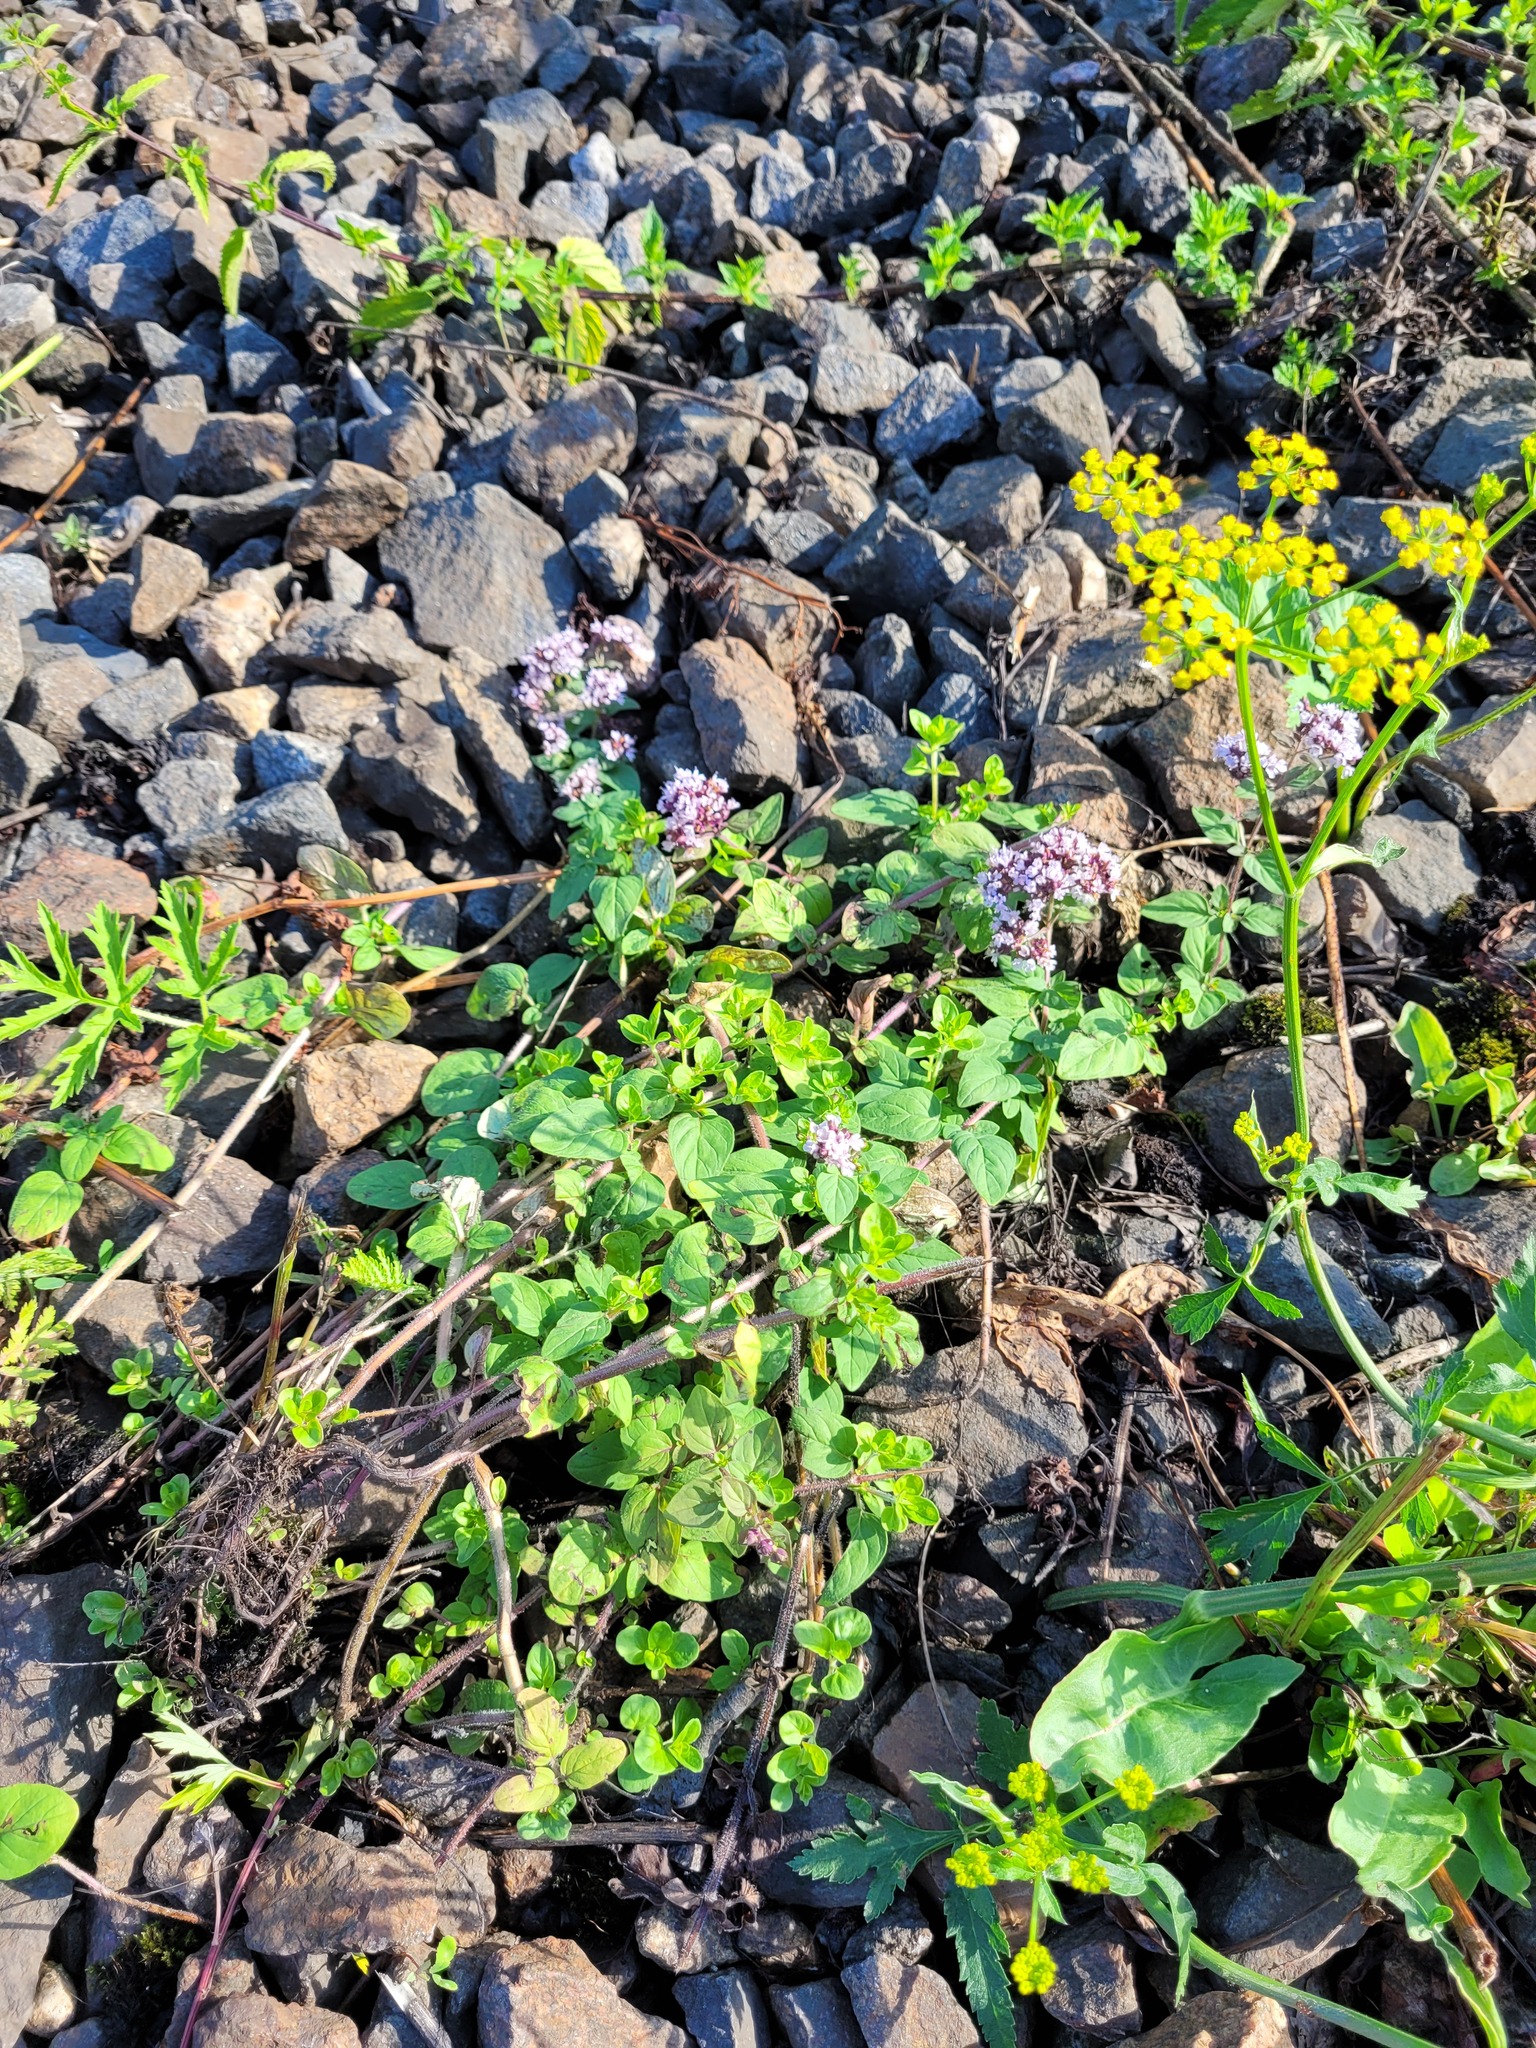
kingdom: Plantae
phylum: Tracheophyta
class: Magnoliopsida
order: Lamiales
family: Lamiaceae
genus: Origanum
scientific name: Origanum vulgare
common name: Wild marjoram
